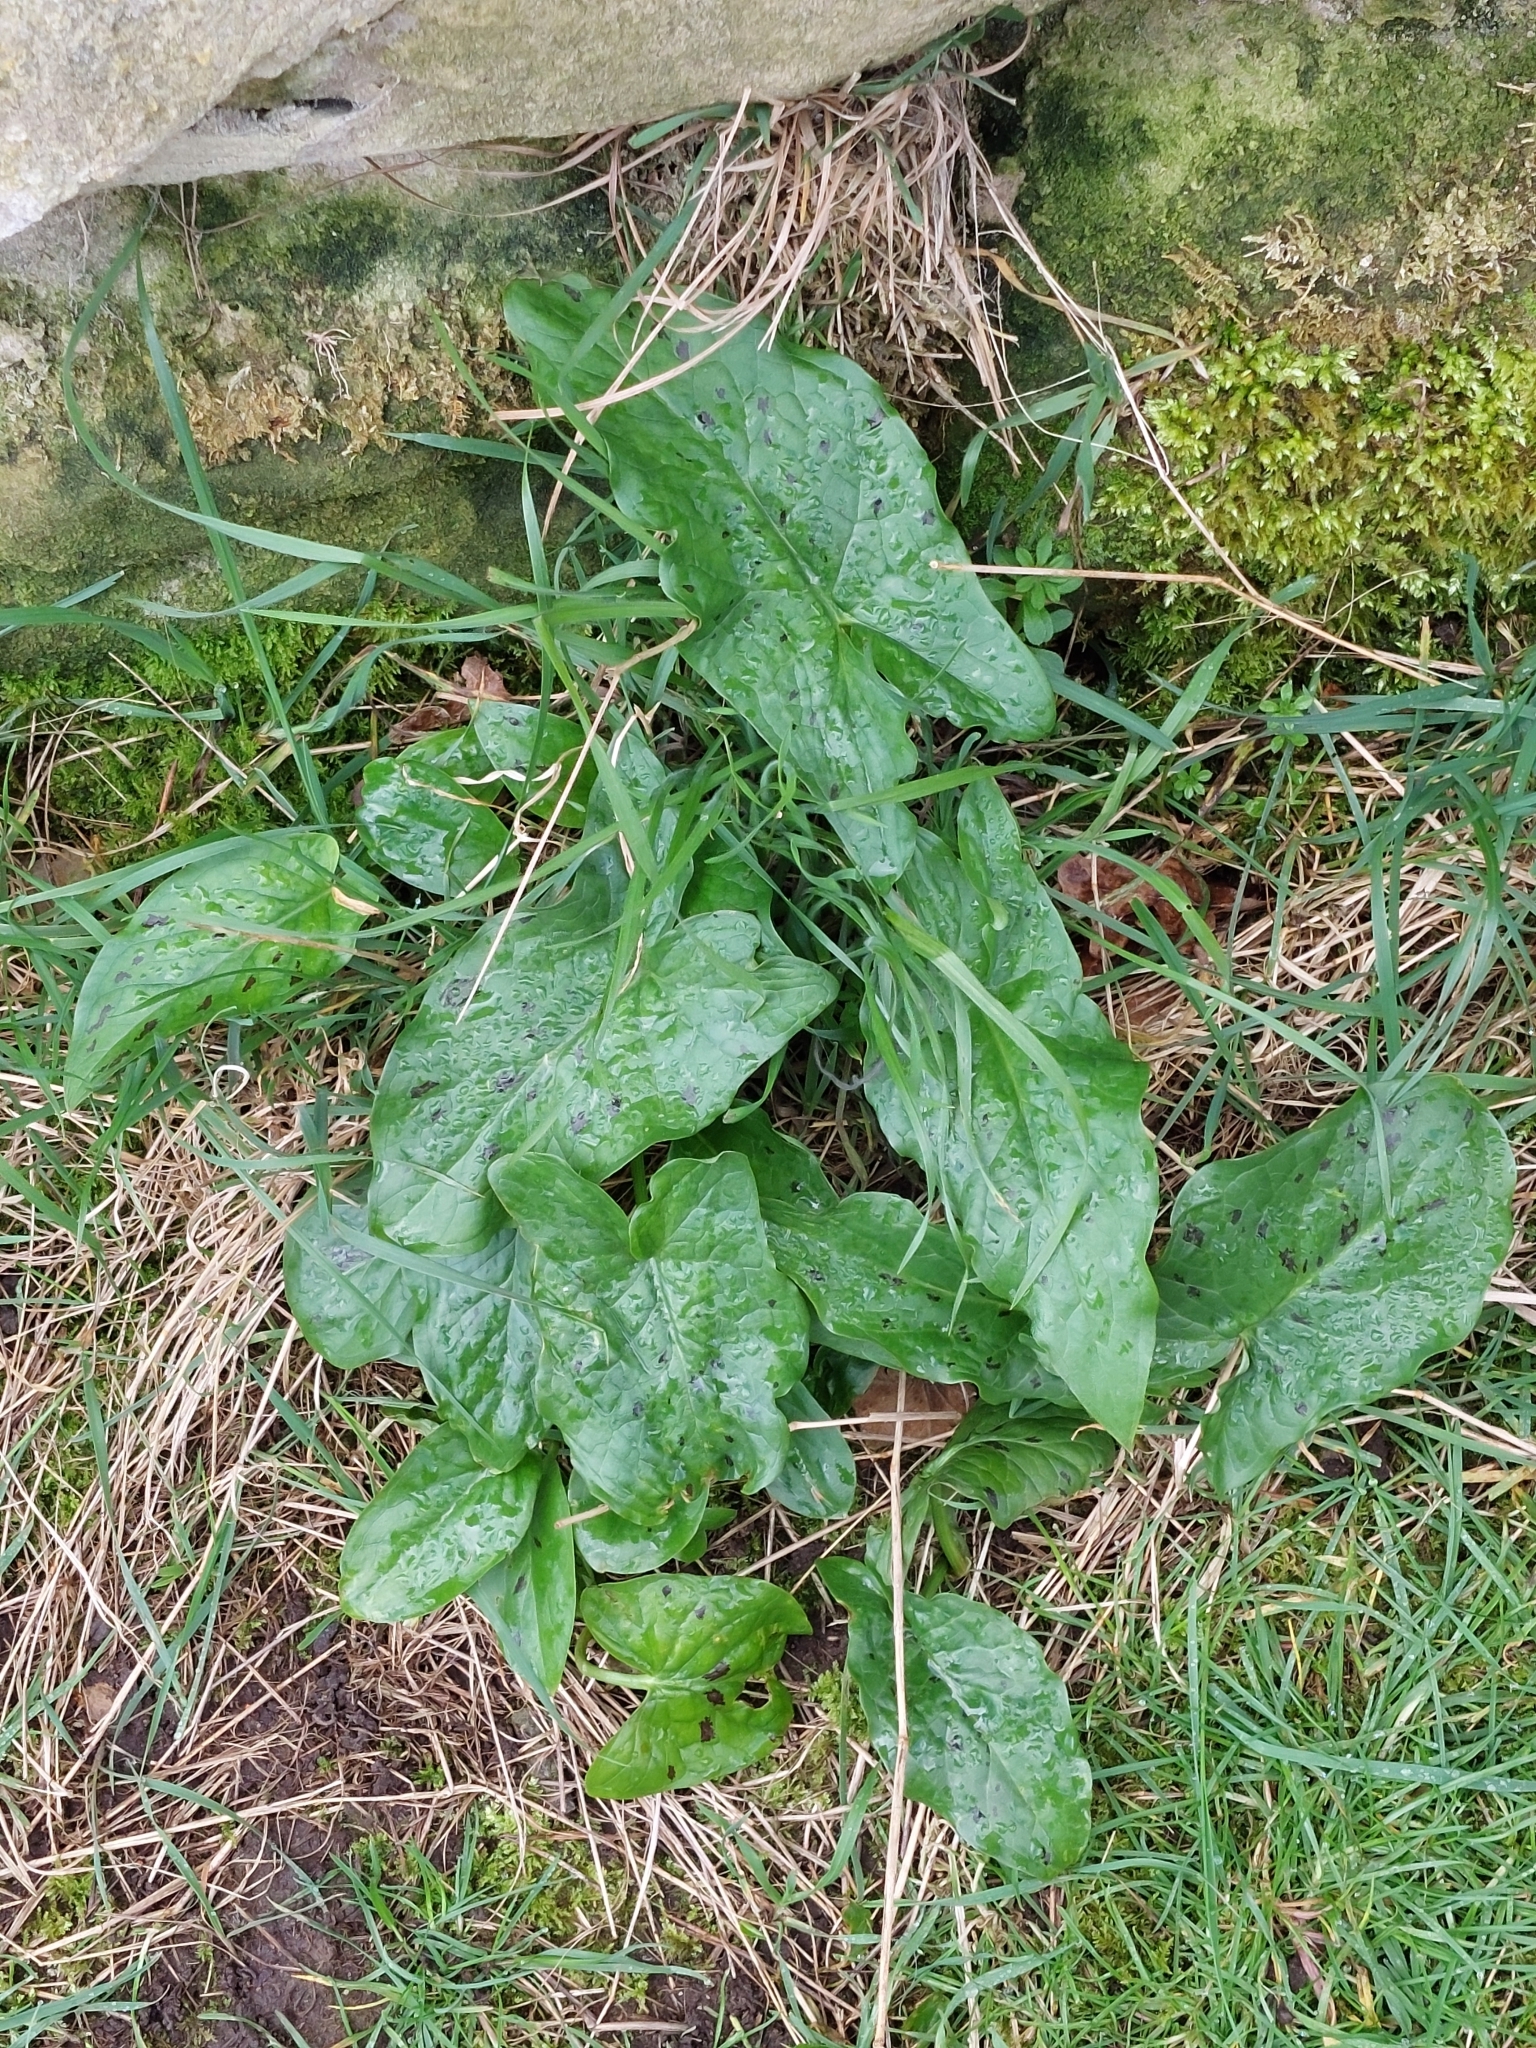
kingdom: Plantae
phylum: Tracheophyta
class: Liliopsida
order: Alismatales
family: Araceae
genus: Arum
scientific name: Arum maculatum
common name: Lords-and-ladies
